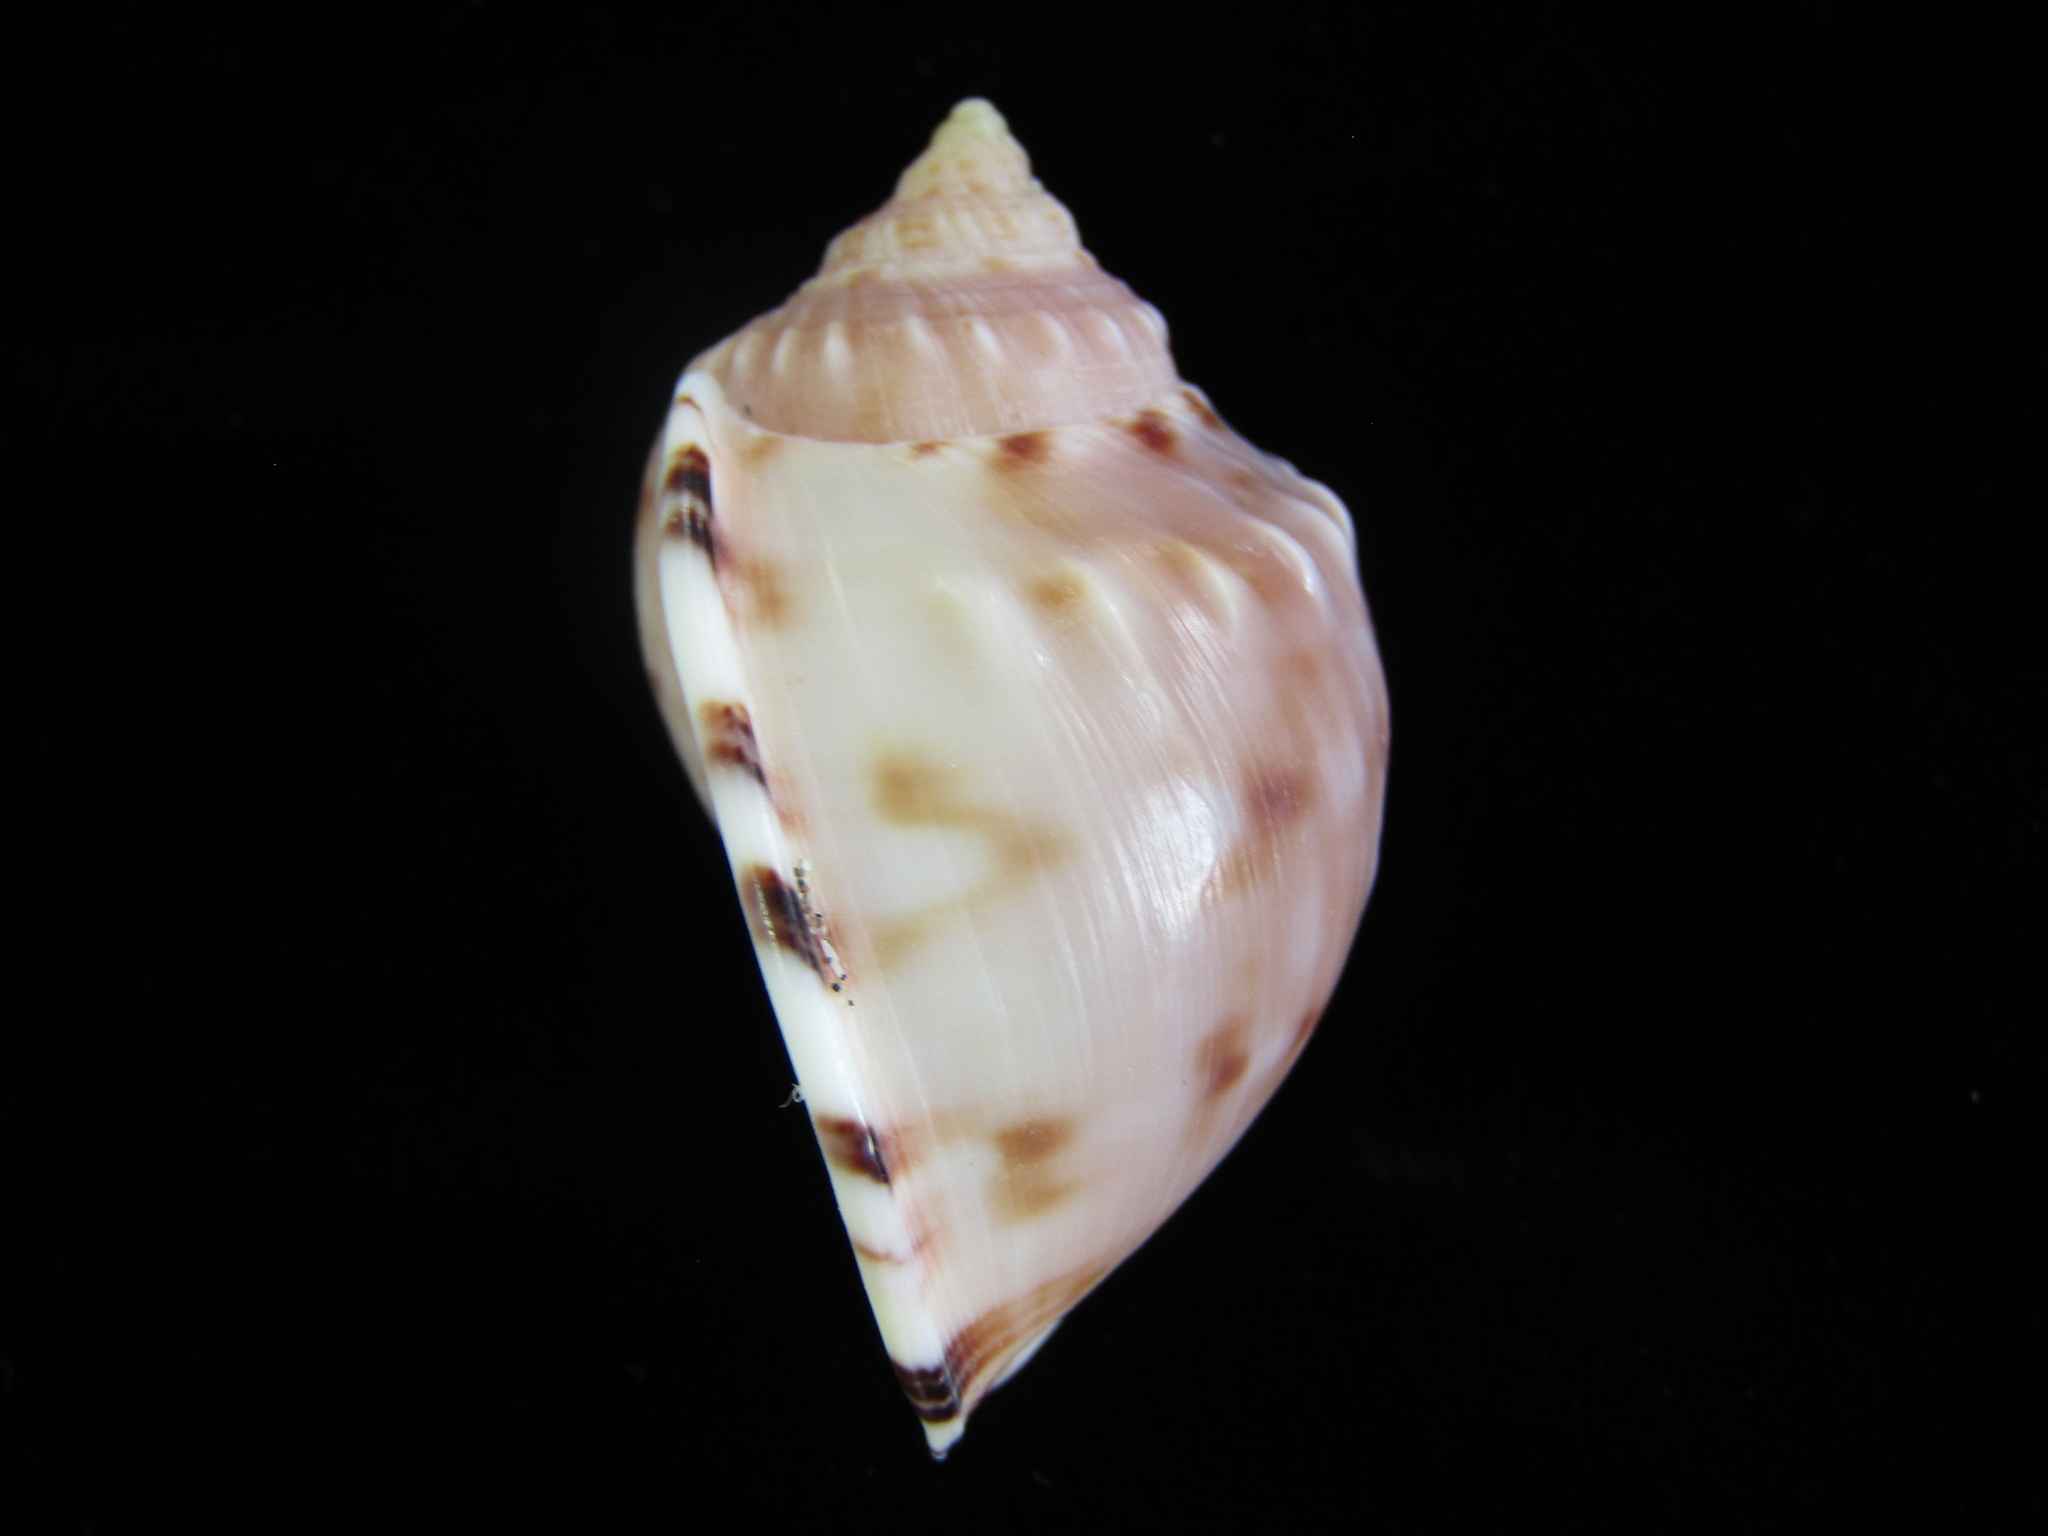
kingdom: Animalia
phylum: Mollusca
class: Gastropoda
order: Littorinimorpha
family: Cassidae
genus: Semicassis
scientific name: Semicassis pyrum
